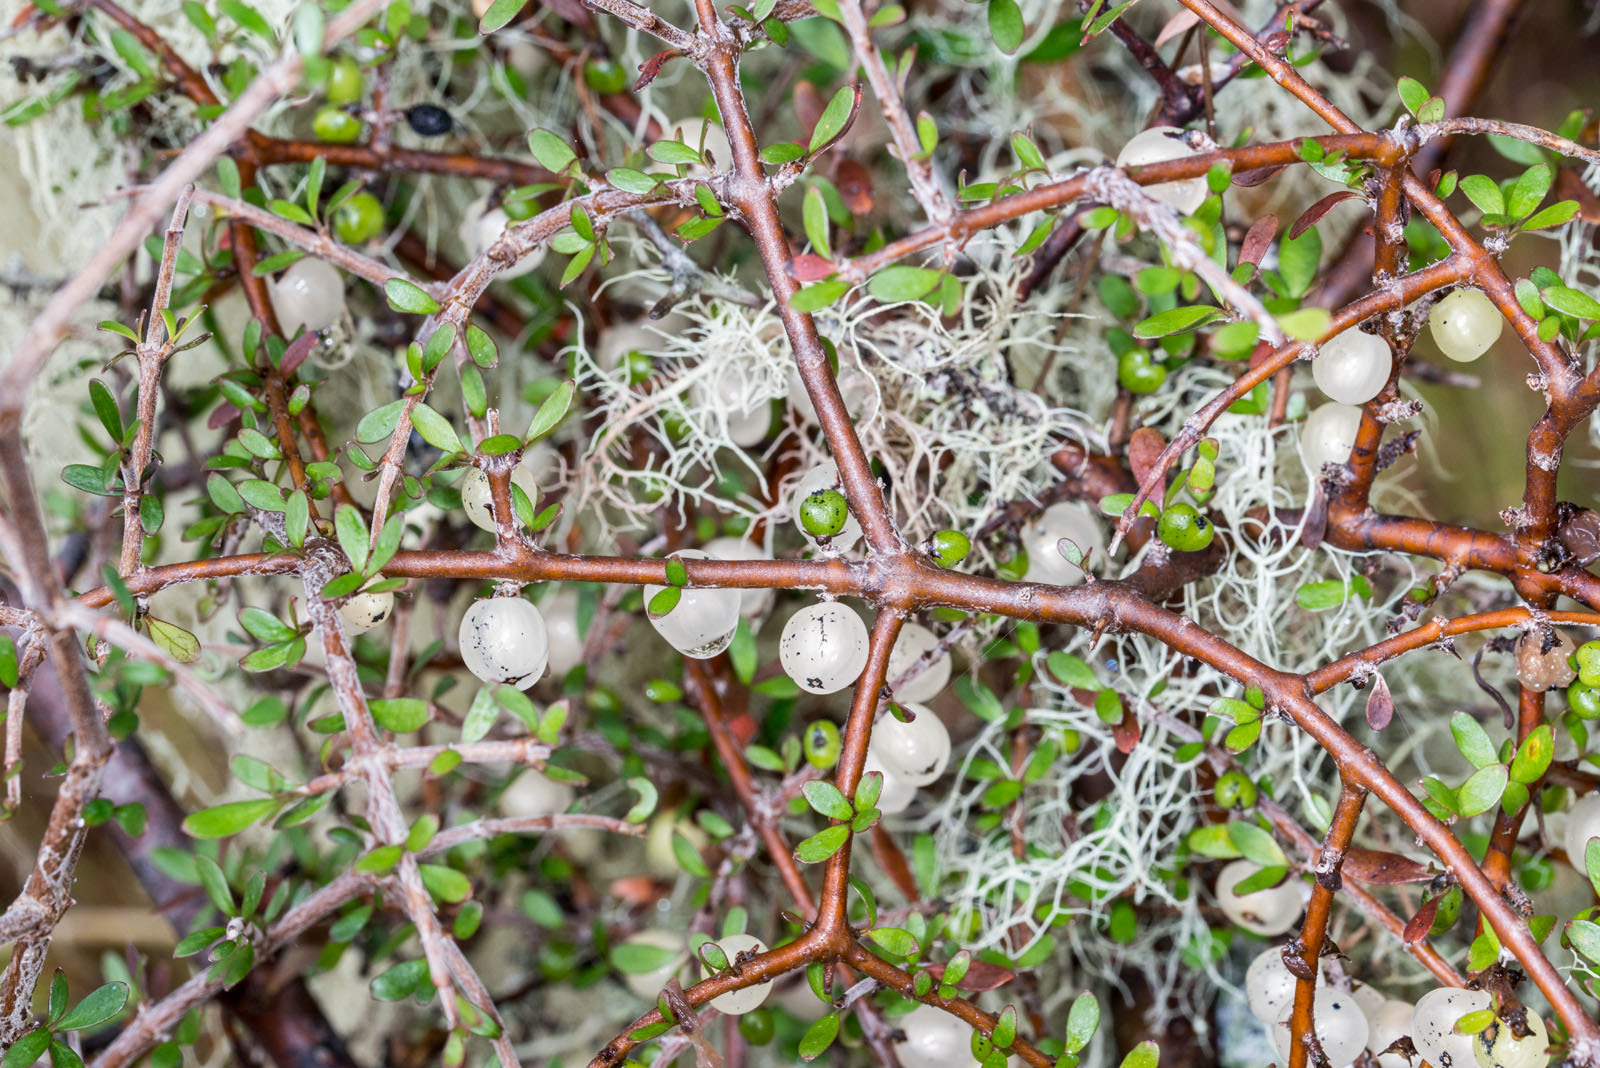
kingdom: Plantae
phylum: Tracheophyta
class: Magnoliopsida
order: Gentianales
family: Rubiaceae
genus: Coprosma
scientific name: Coprosma rigida
